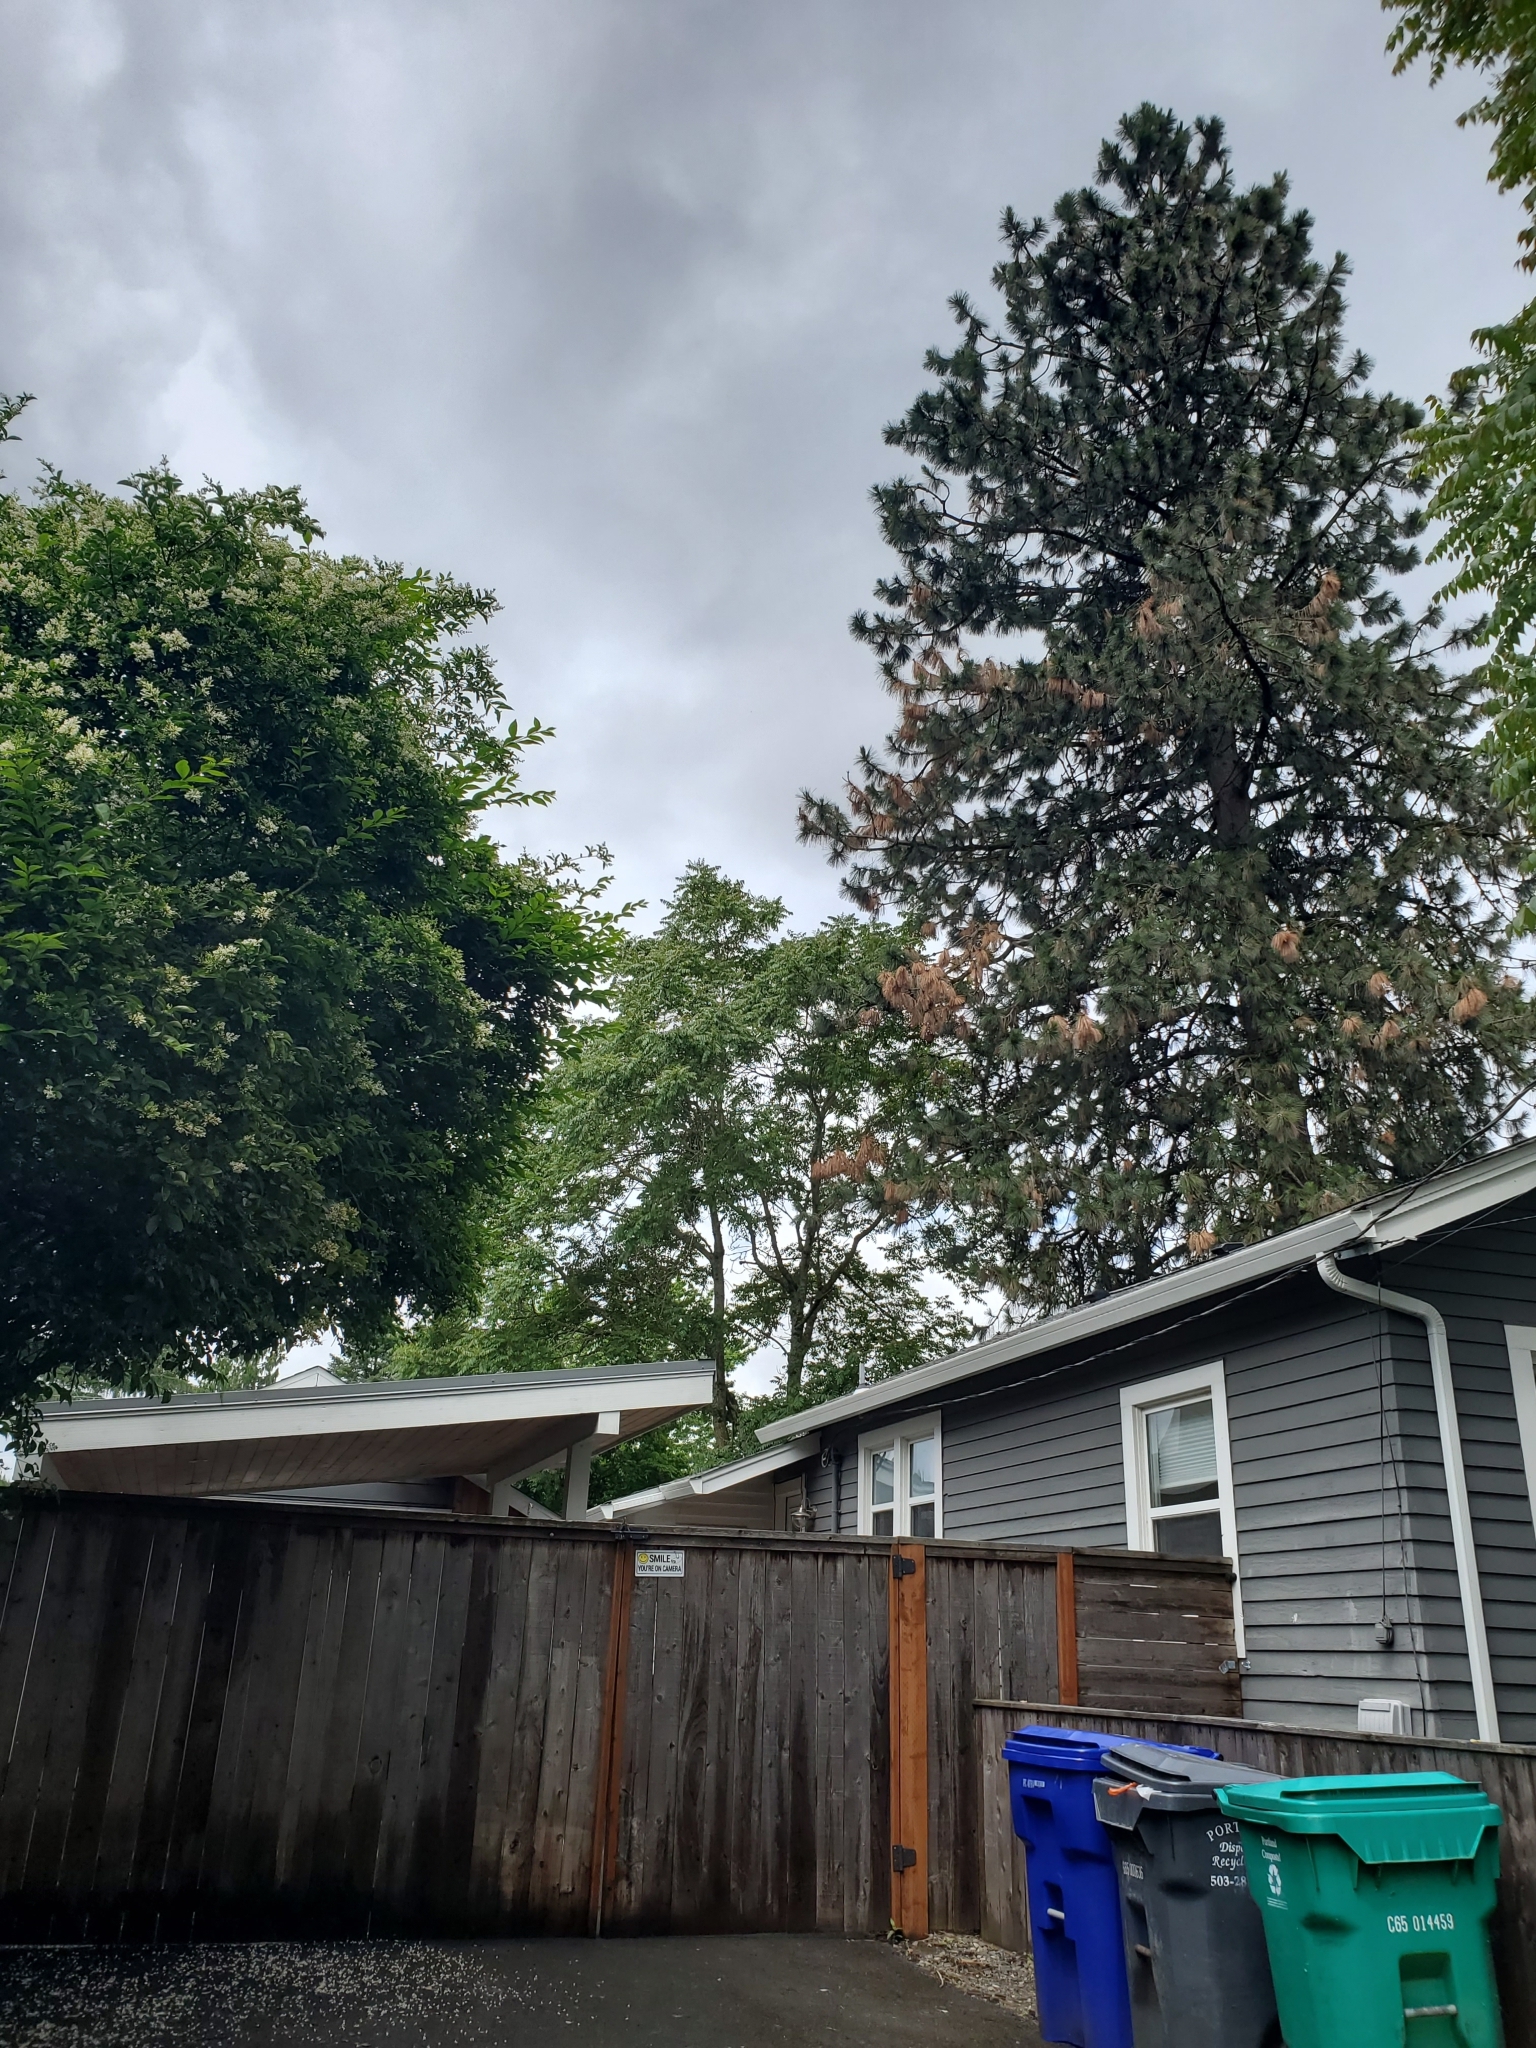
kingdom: Plantae
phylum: Tracheophyta
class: Magnoliopsida
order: Sapindales
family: Simaroubaceae
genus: Ailanthus
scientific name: Ailanthus altissima
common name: Tree-of-heaven
